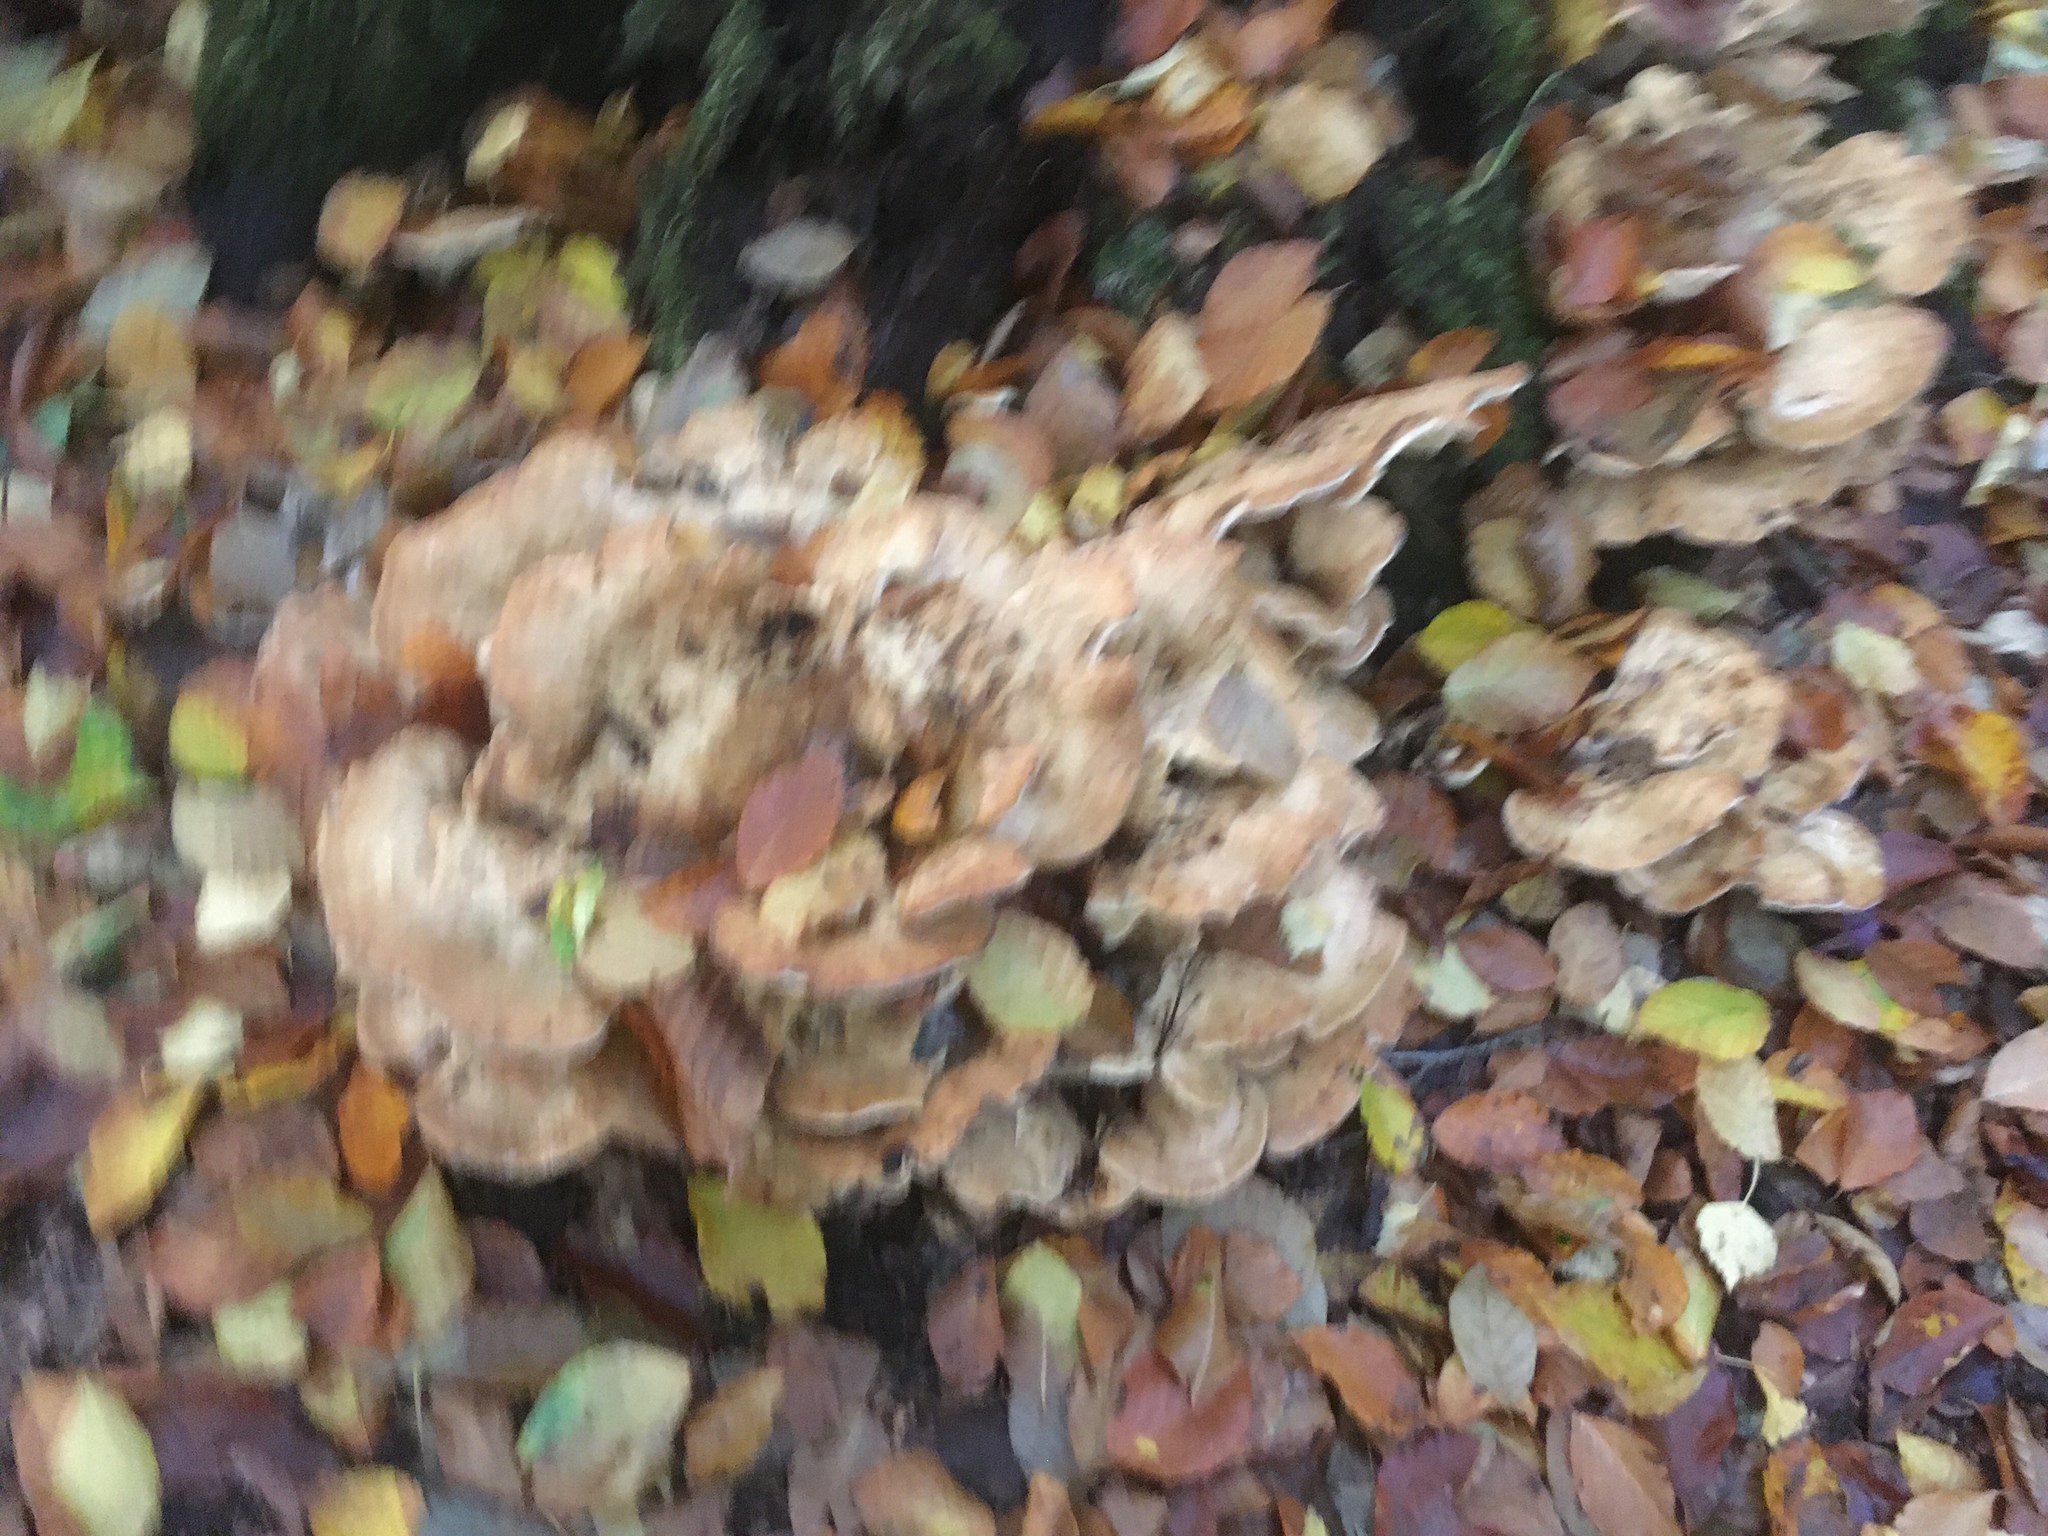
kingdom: Fungi
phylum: Basidiomycota
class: Agaricomycetes
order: Polyporales
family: Meripilaceae
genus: Meripilus
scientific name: Meripilus giganteus
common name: Giant polypore
